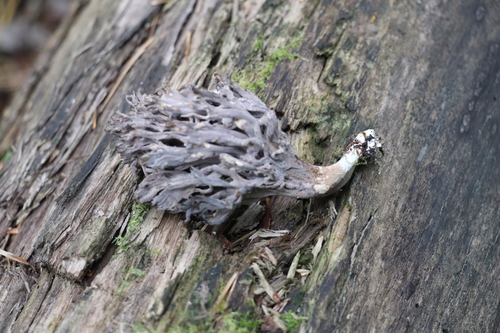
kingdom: Fungi
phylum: Basidiomycota
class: Agaricomycetes
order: Cantharellales
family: Hydnaceae
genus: Clavulina
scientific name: Clavulina
